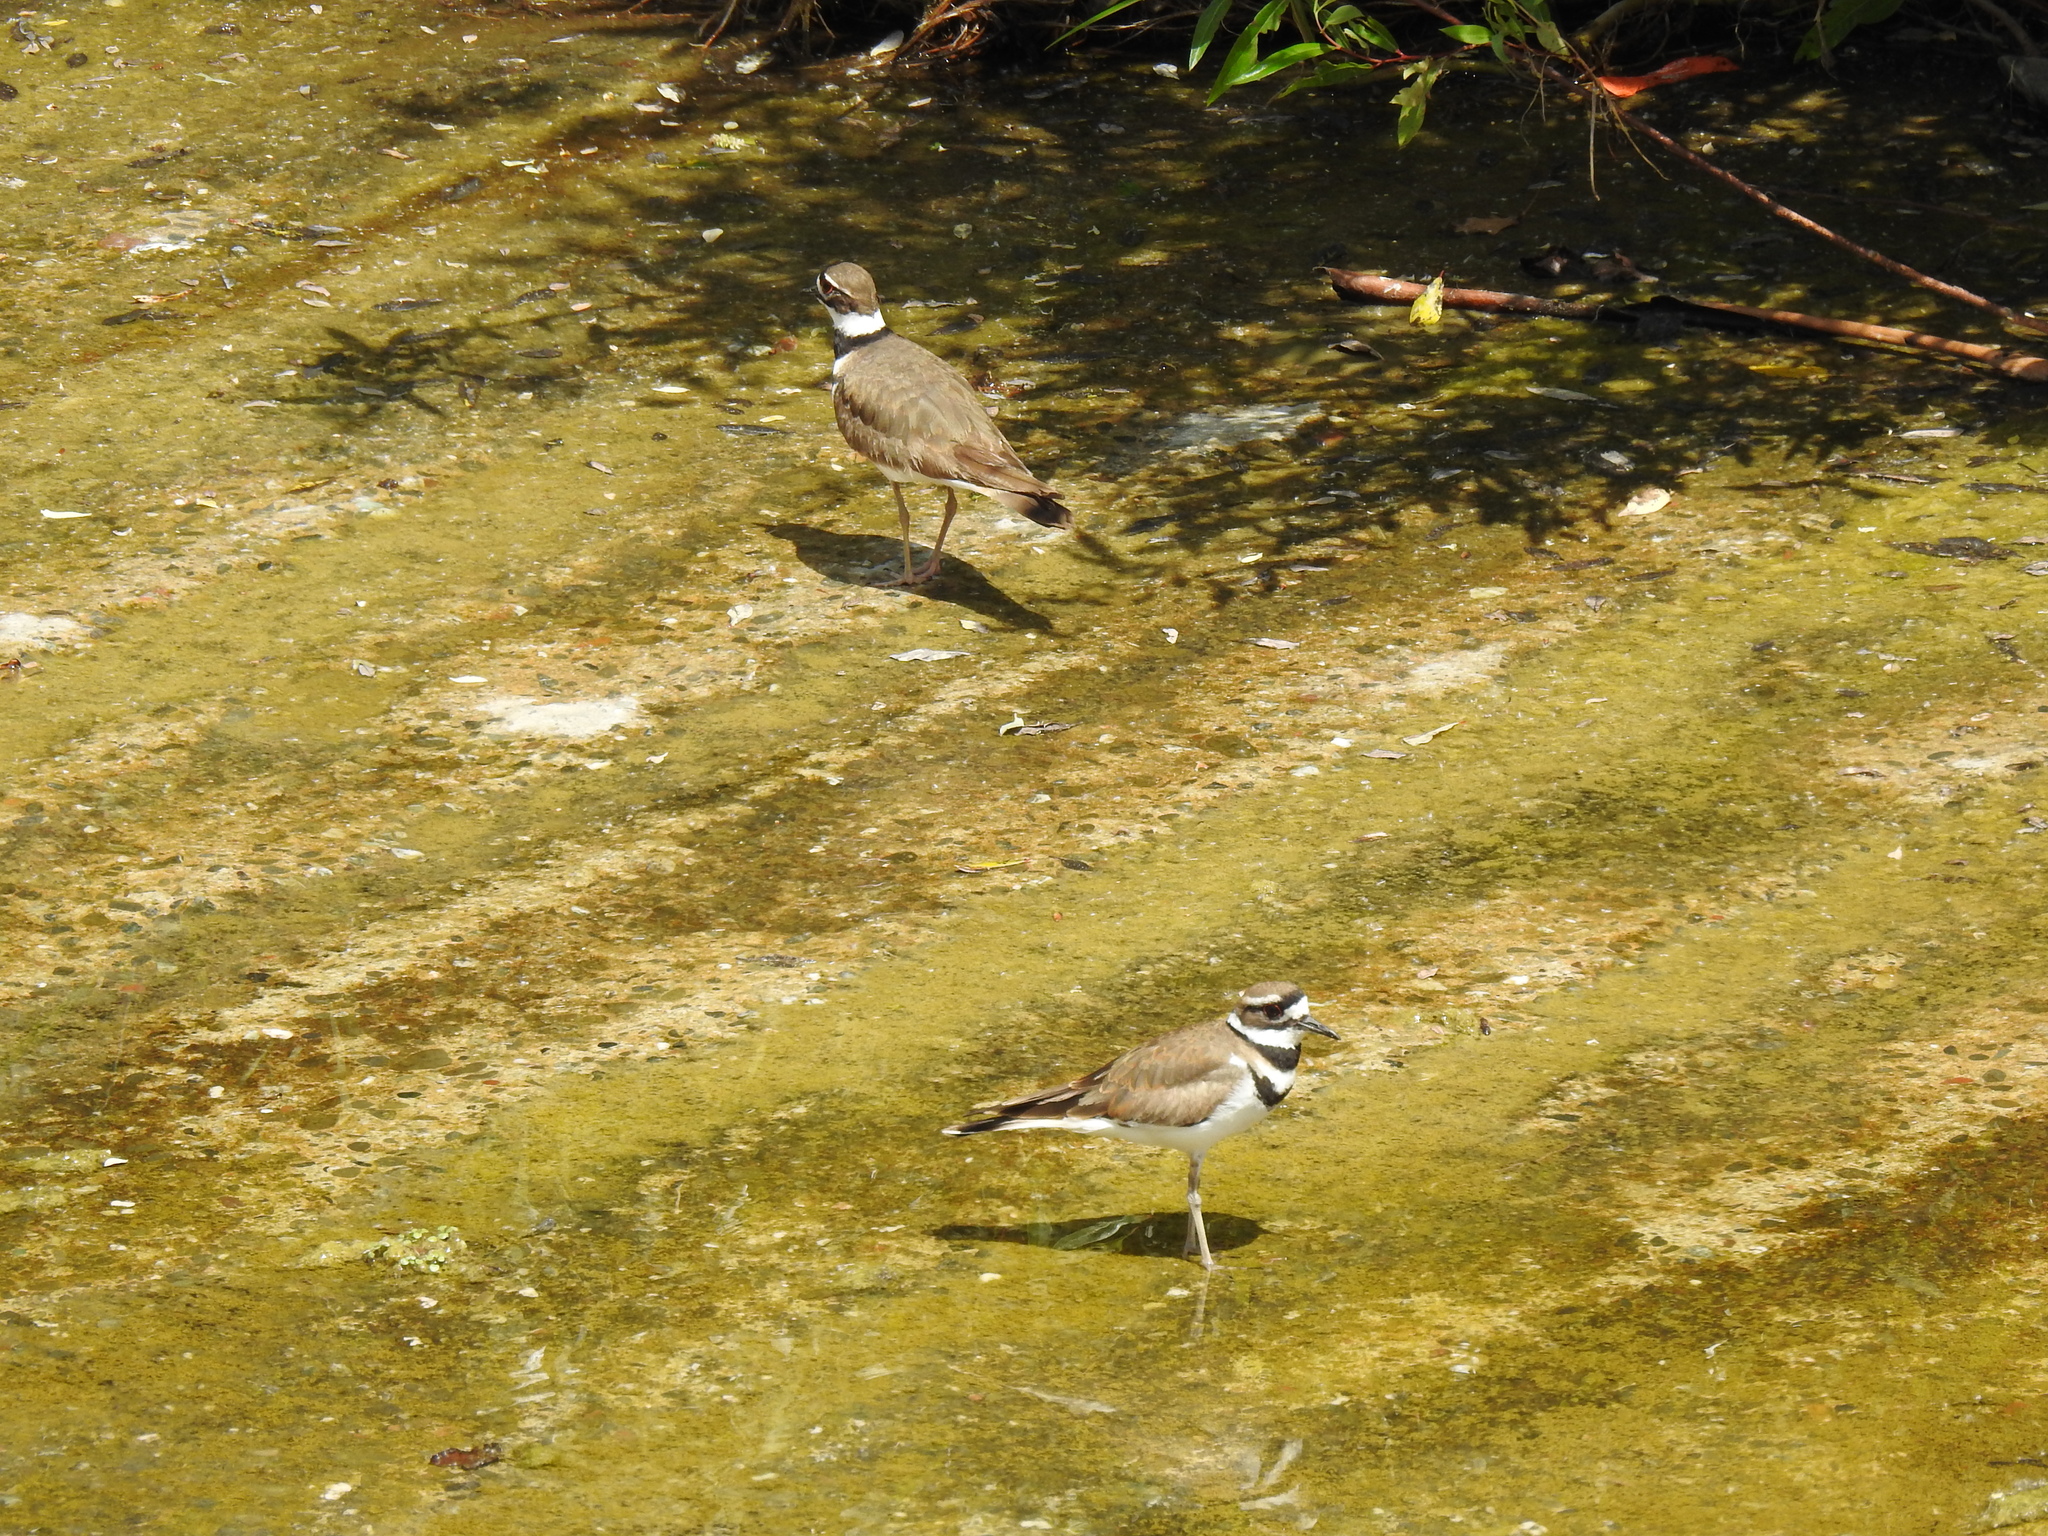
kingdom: Animalia
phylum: Chordata
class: Aves
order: Charadriiformes
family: Charadriidae
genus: Charadrius
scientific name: Charadrius vociferus
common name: Killdeer
